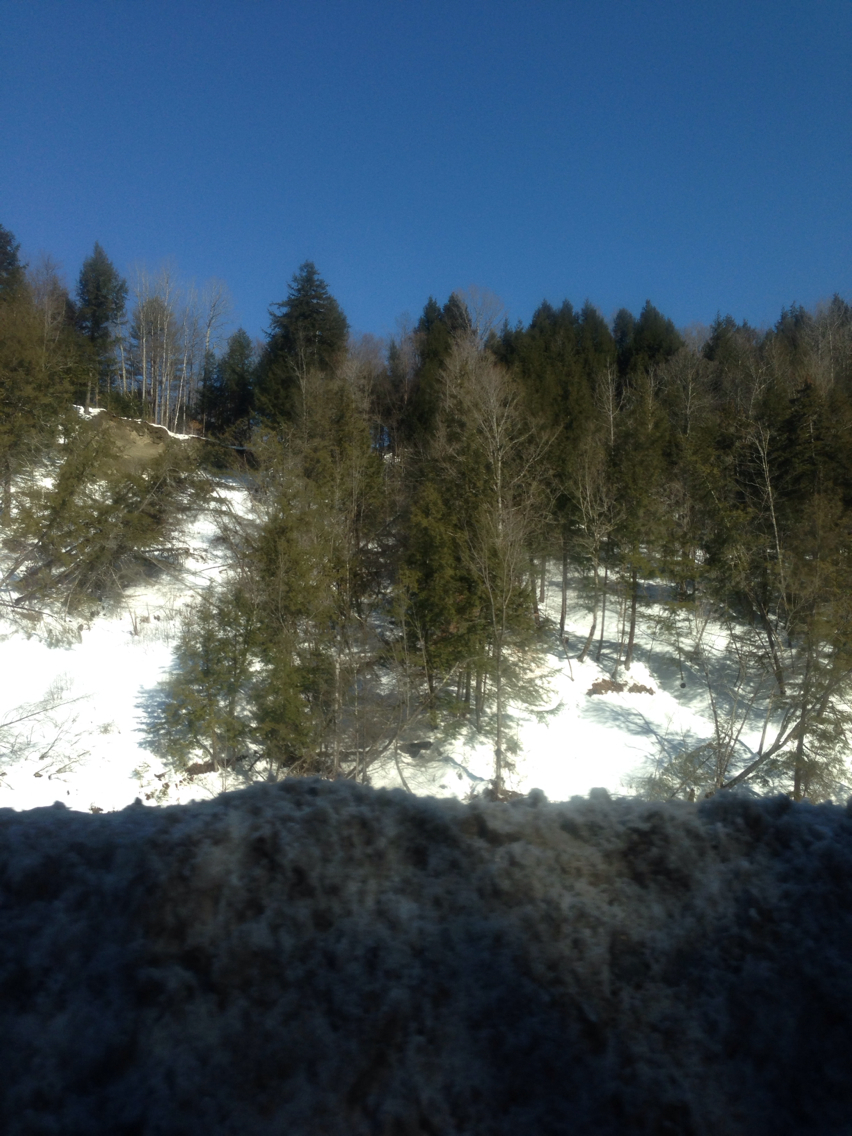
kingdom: Plantae
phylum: Tracheophyta
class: Pinopsida
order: Pinales
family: Pinaceae
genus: Tsuga
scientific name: Tsuga canadensis
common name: Eastern hemlock
